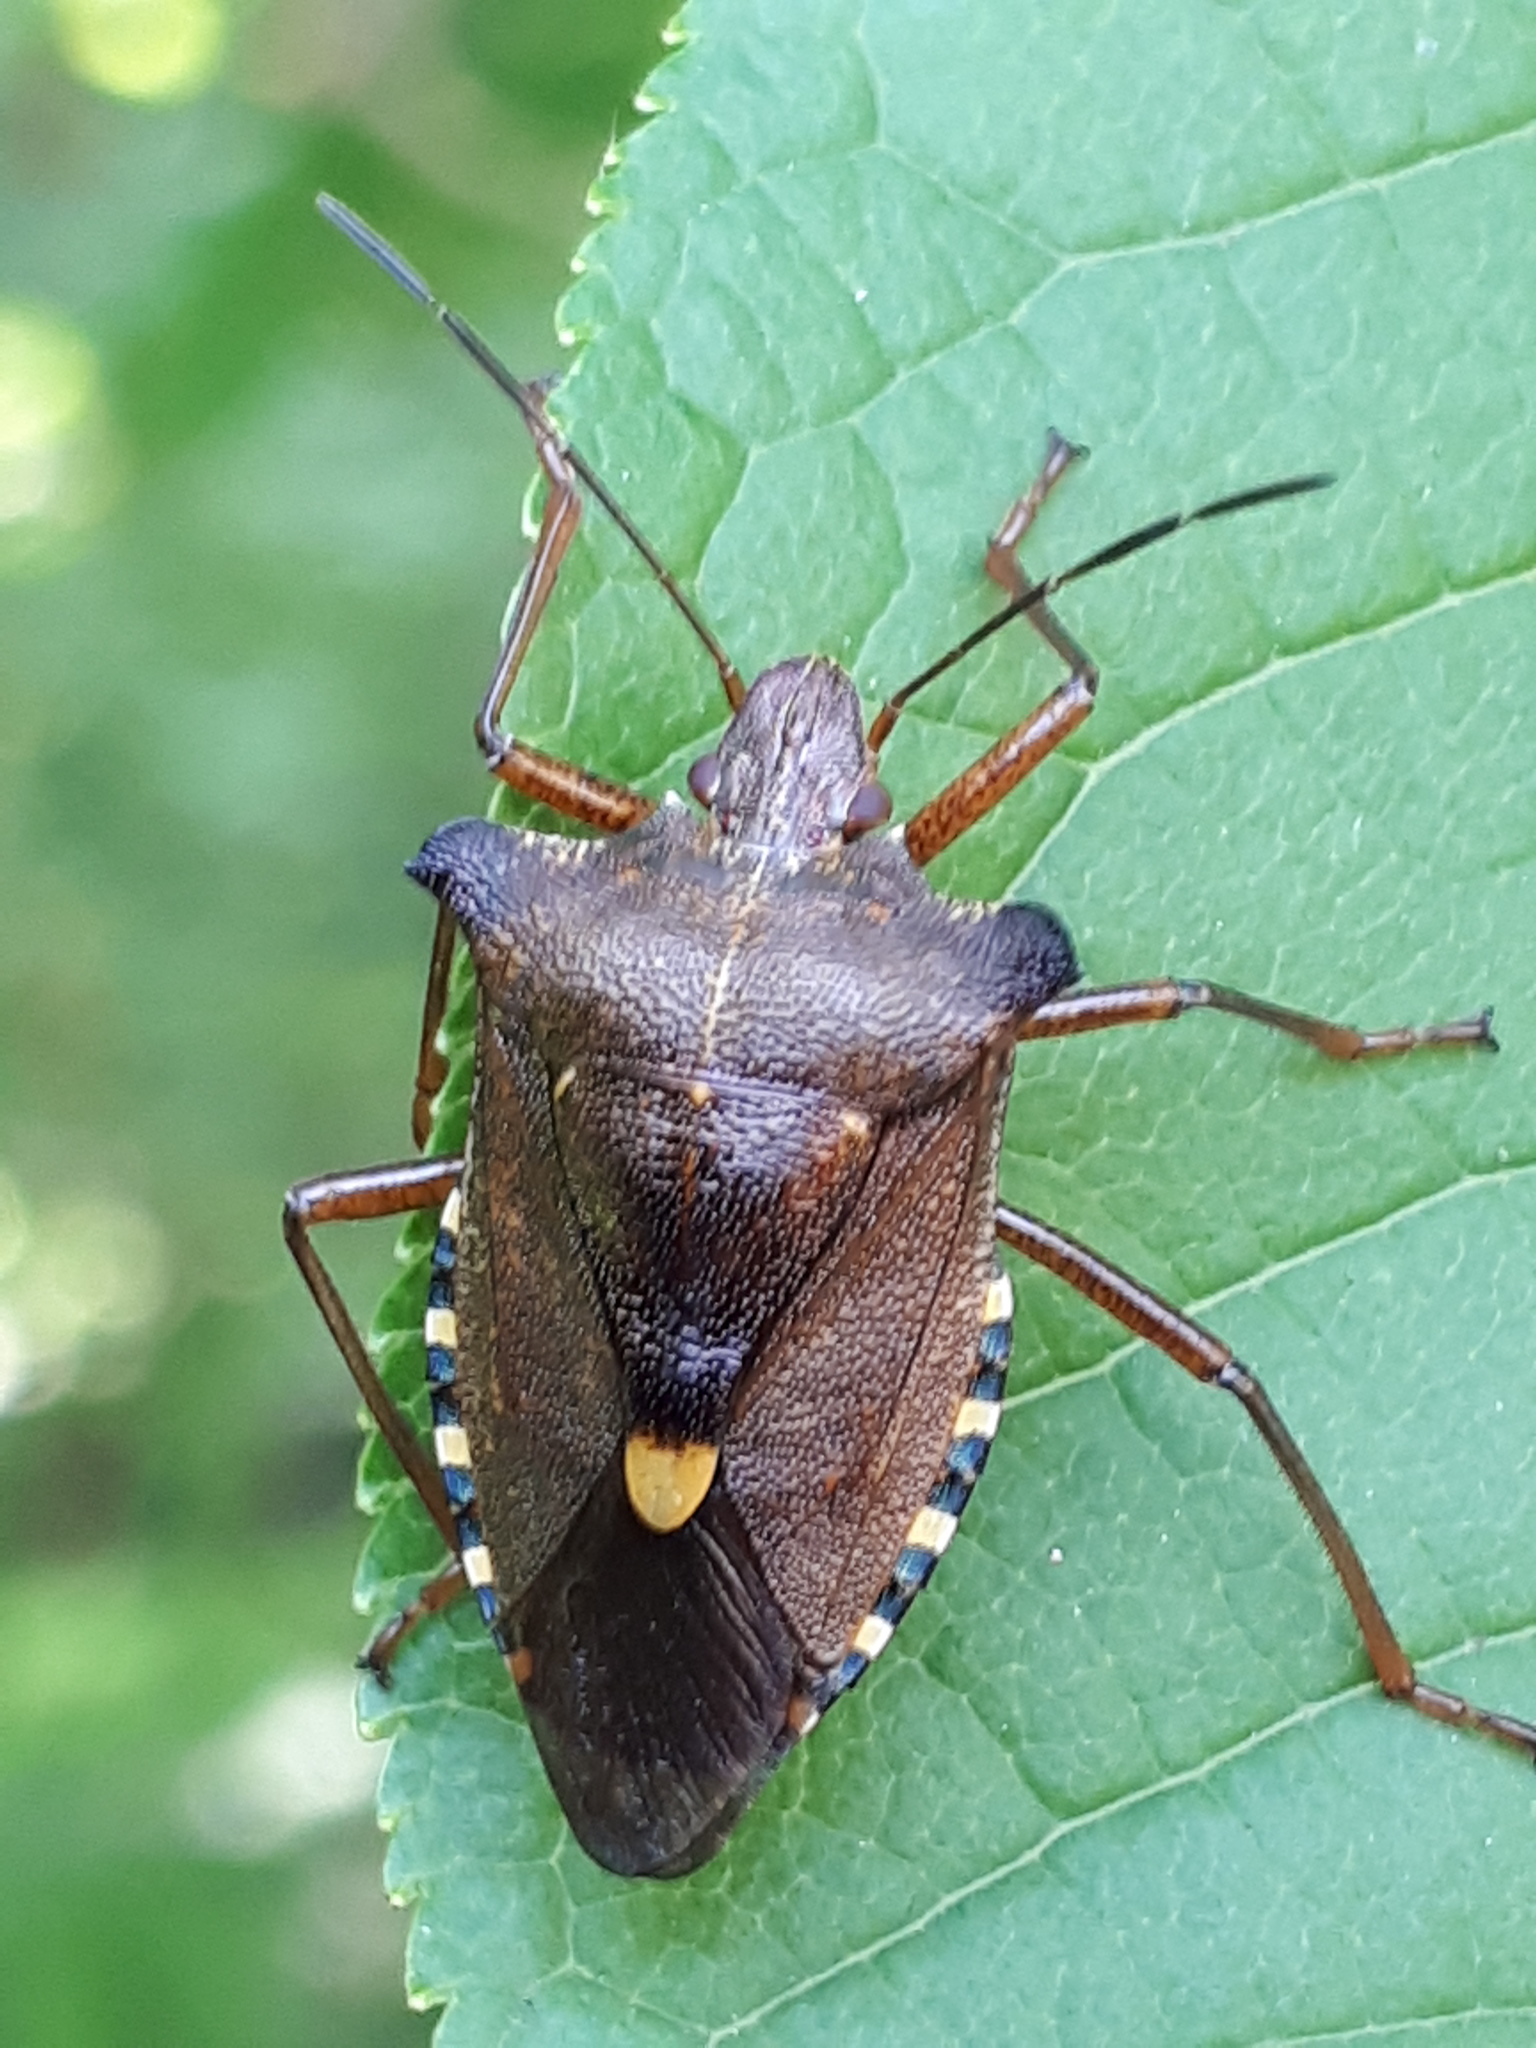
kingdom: Animalia
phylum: Arthropoda
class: Insecta
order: Hemiptera
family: Pentatomidae
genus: Pentatoma
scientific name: Pentatoma rufipes
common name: Forest bug
